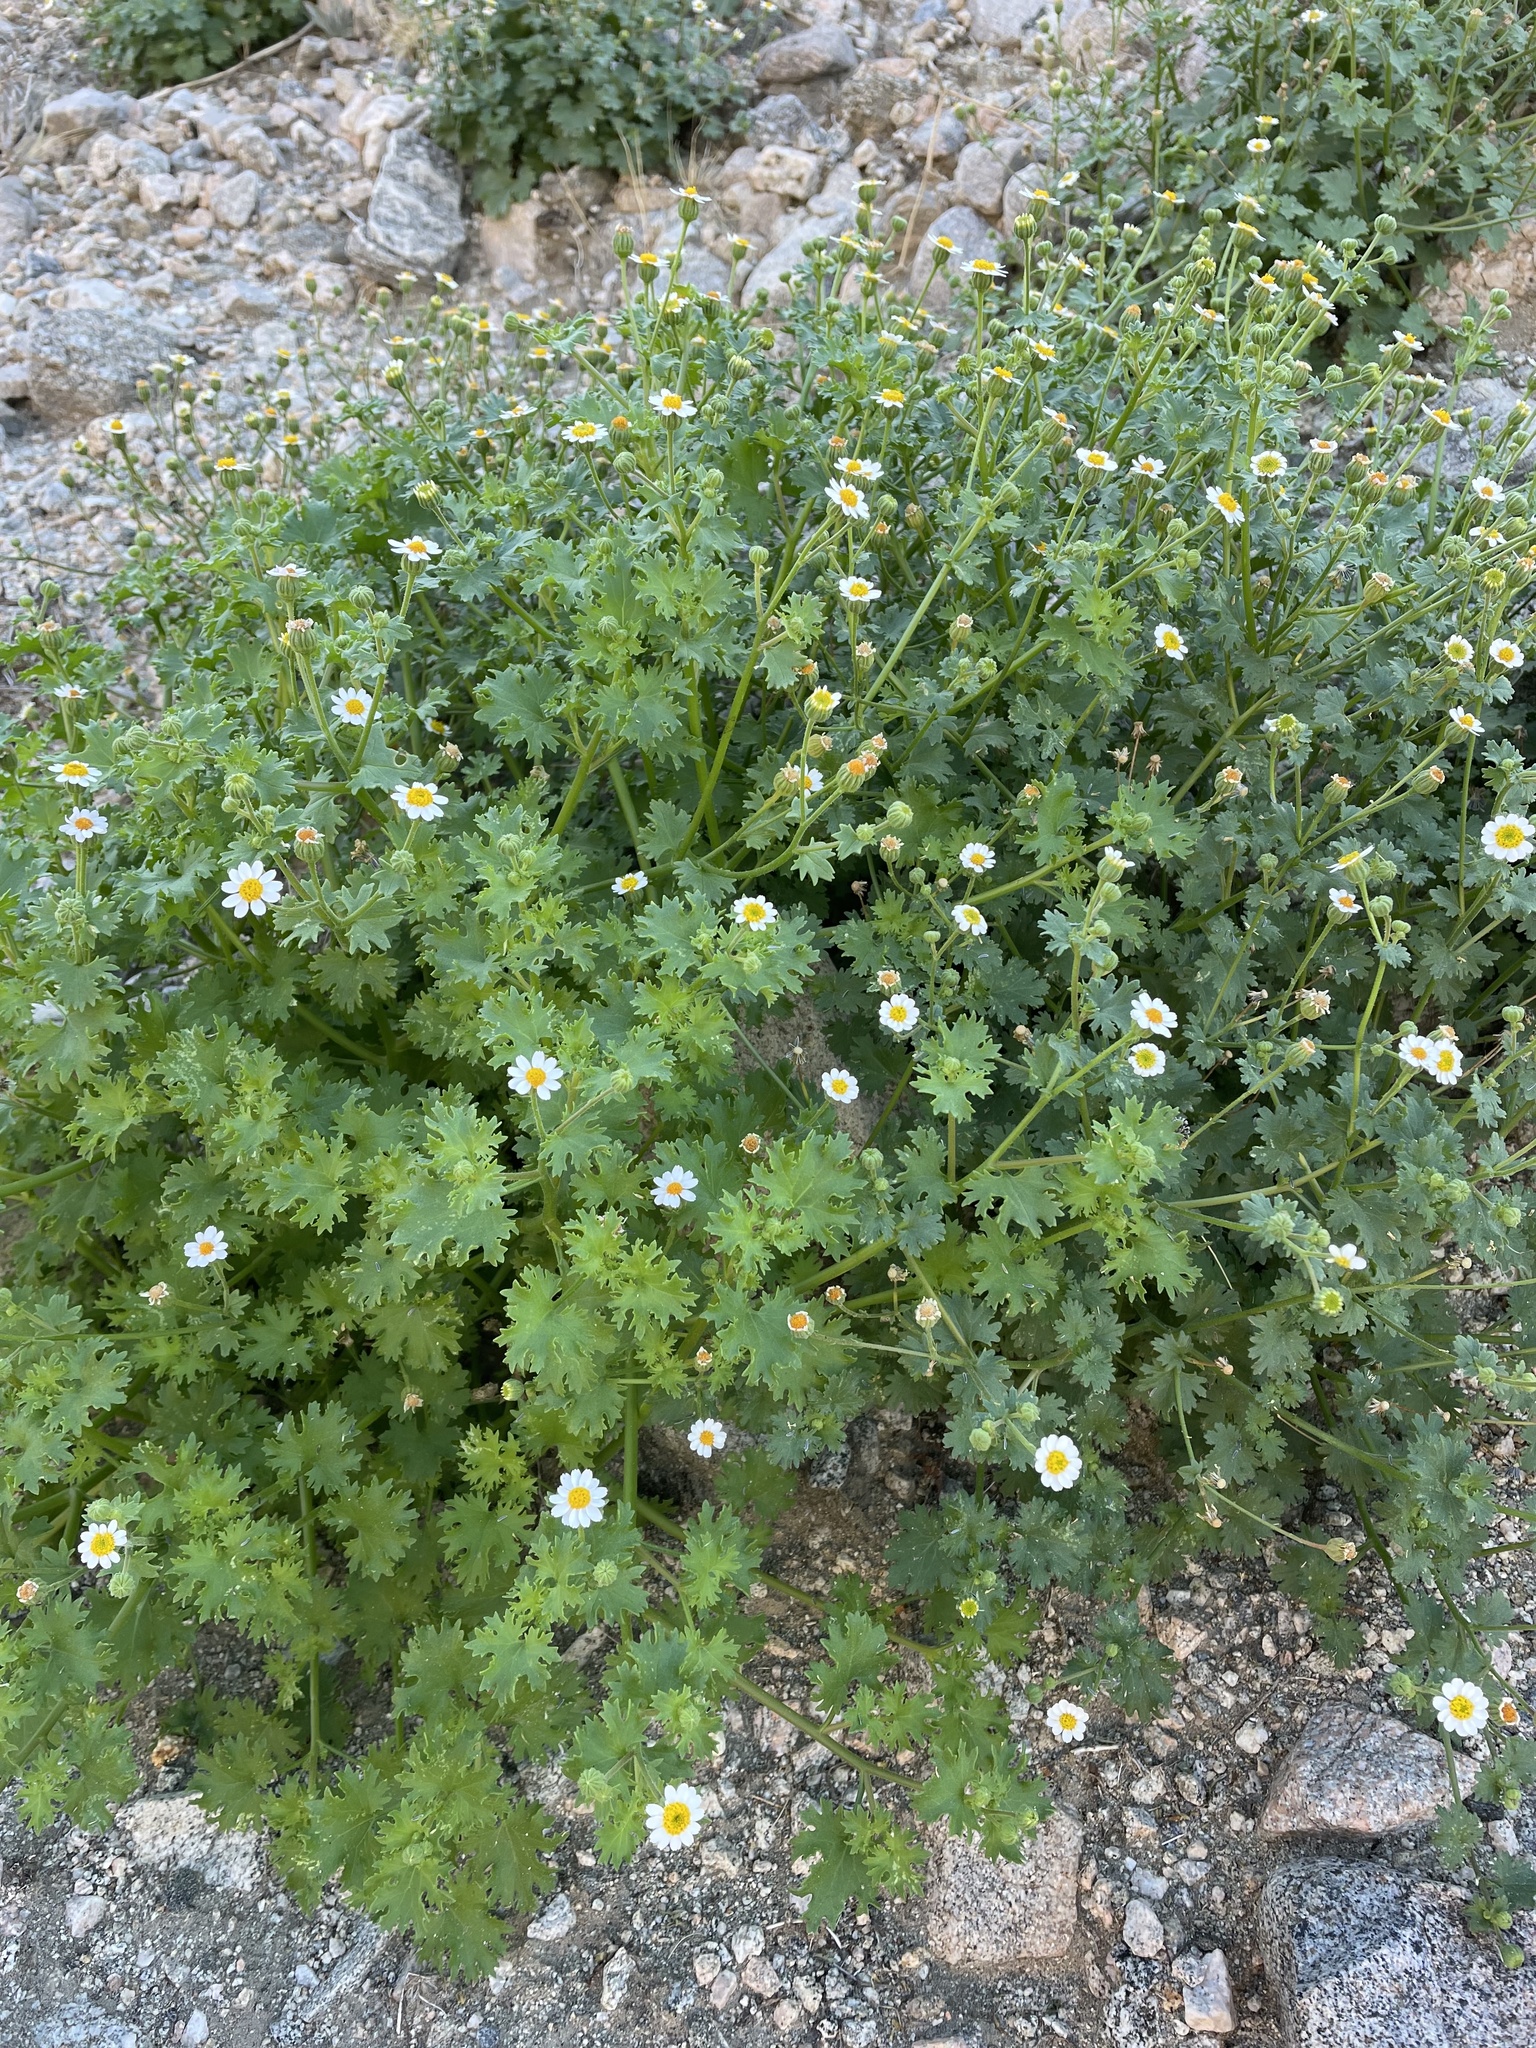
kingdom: Plantae
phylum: Tracheophyta
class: Magnoliopsida
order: Asterales
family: Asteraceae
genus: Laphamia
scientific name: Laphamia emoryi
